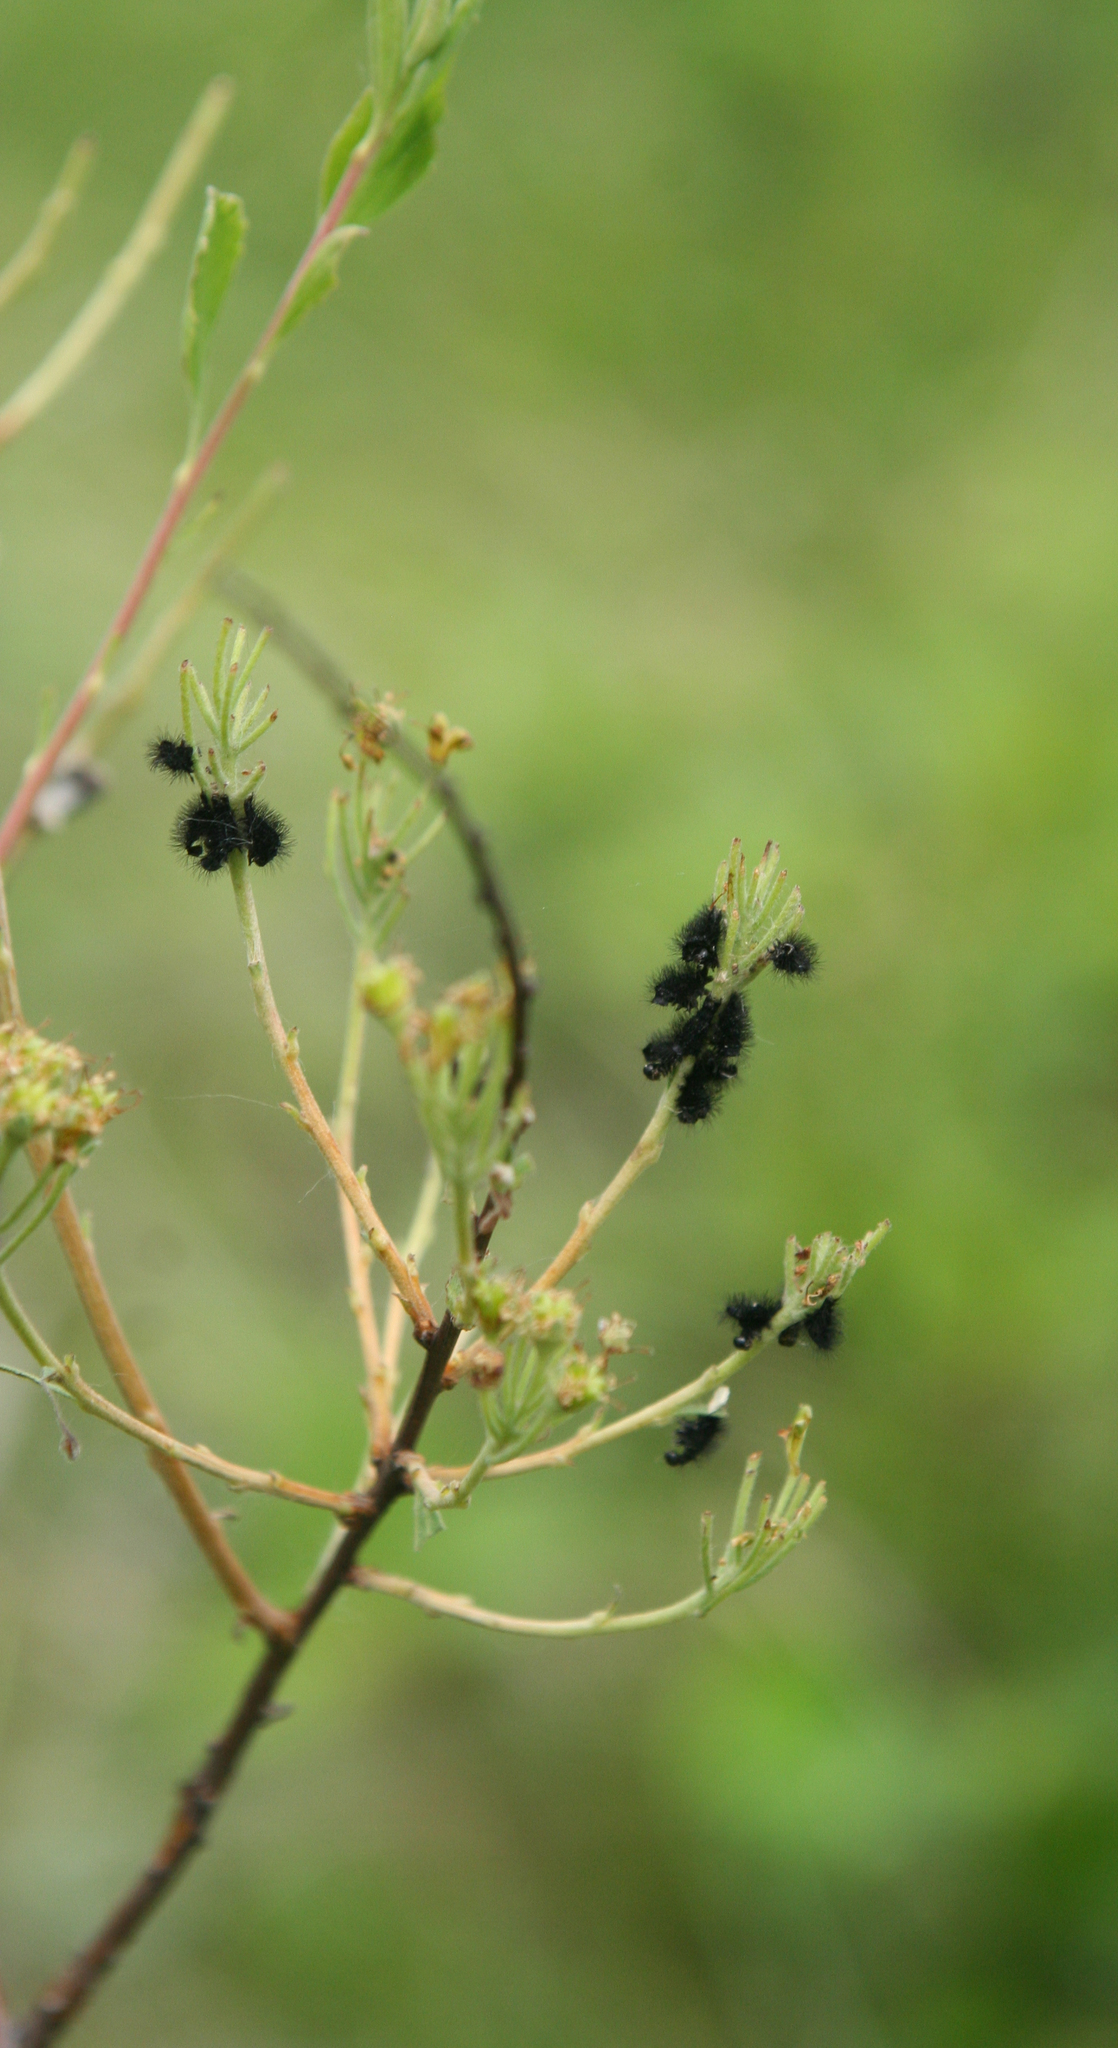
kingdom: Animalia
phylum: Arthropoda
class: Insecta
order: Lepidoptera
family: Saturniidae
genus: Saturnia
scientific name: Saturnia pavonia
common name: Emperor moth
